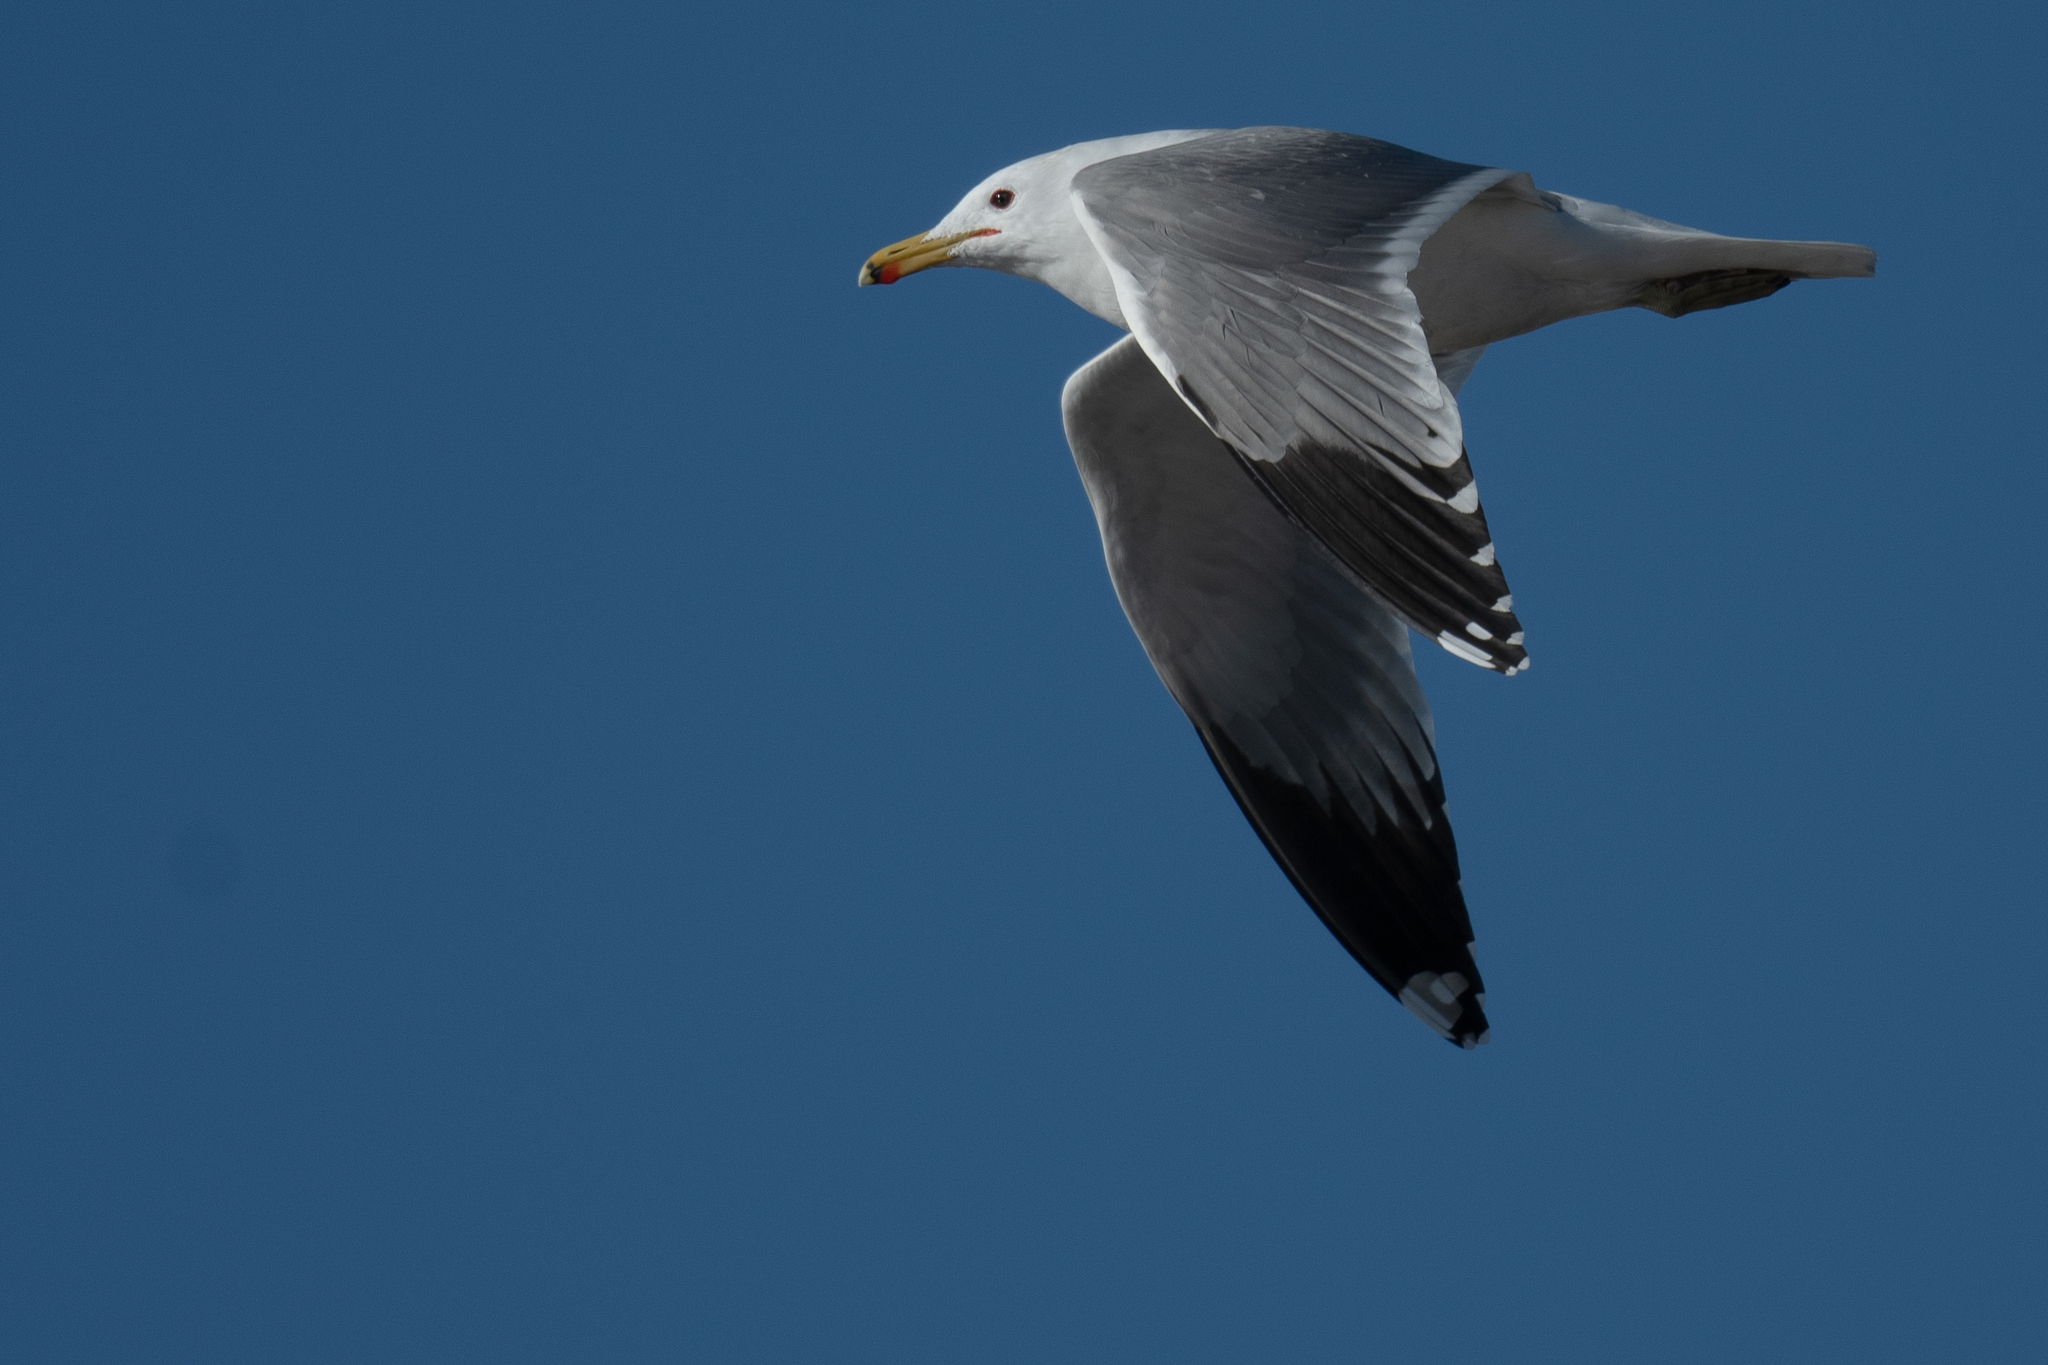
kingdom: Animalia
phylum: Chordata
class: Aves
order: Charadriiformes
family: Laridae
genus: Larus
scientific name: Larus californicus
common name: California gull
